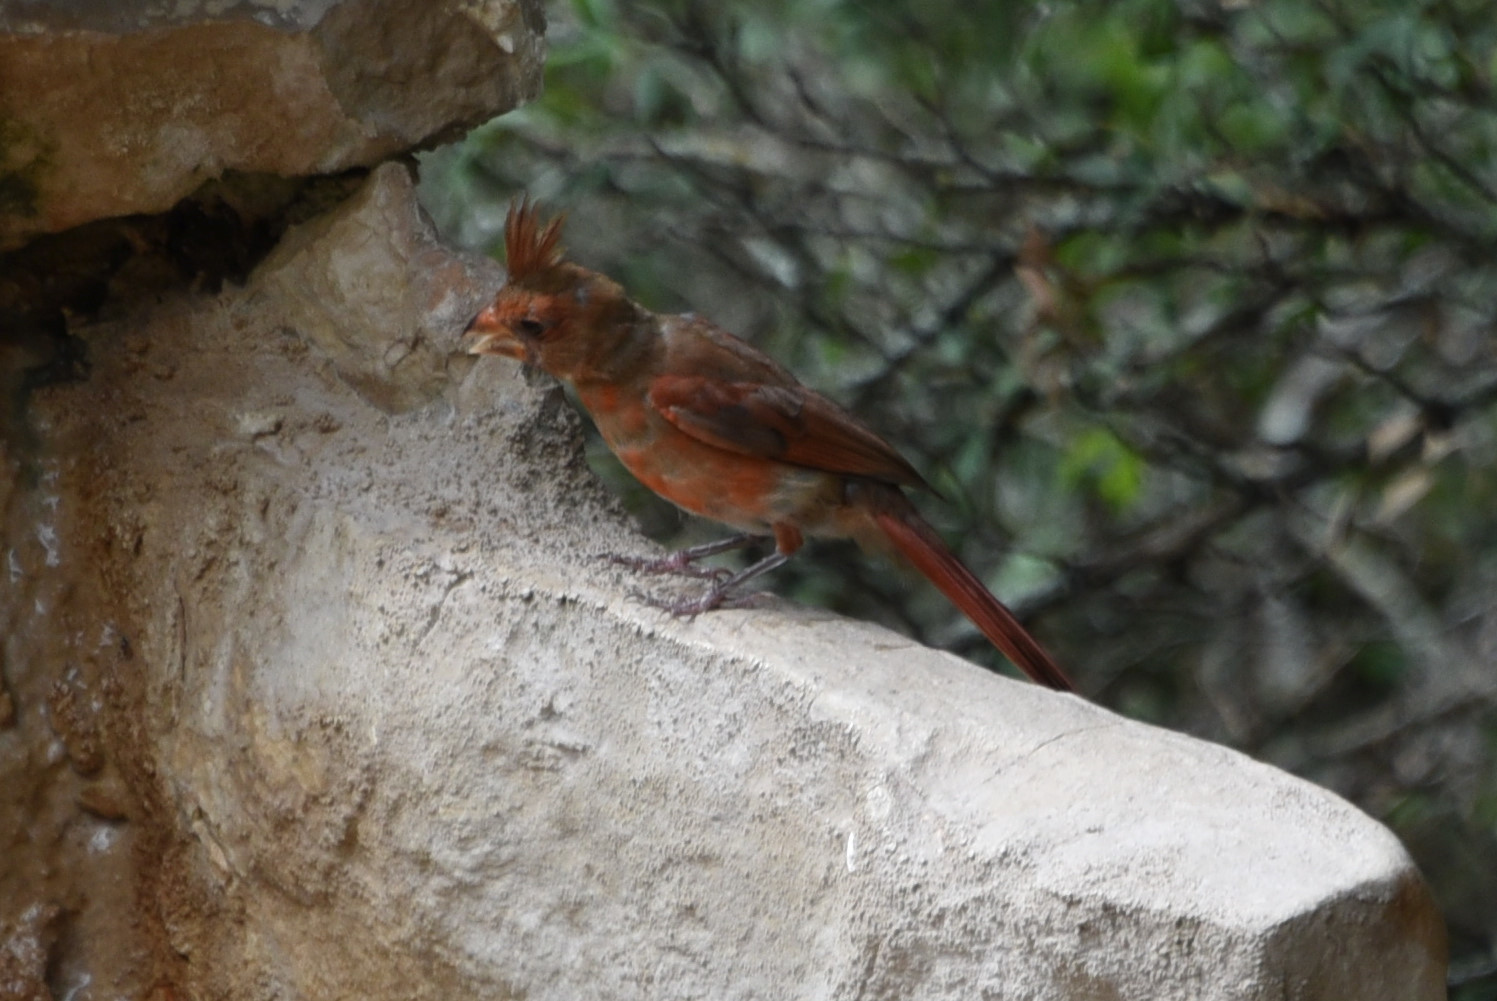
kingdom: Animalia
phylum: Chordata
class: Aves
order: Passeriformes
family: Cardinalidae
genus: Cardinalis
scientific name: Cardinalis cardinalis
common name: Northern cardinal
